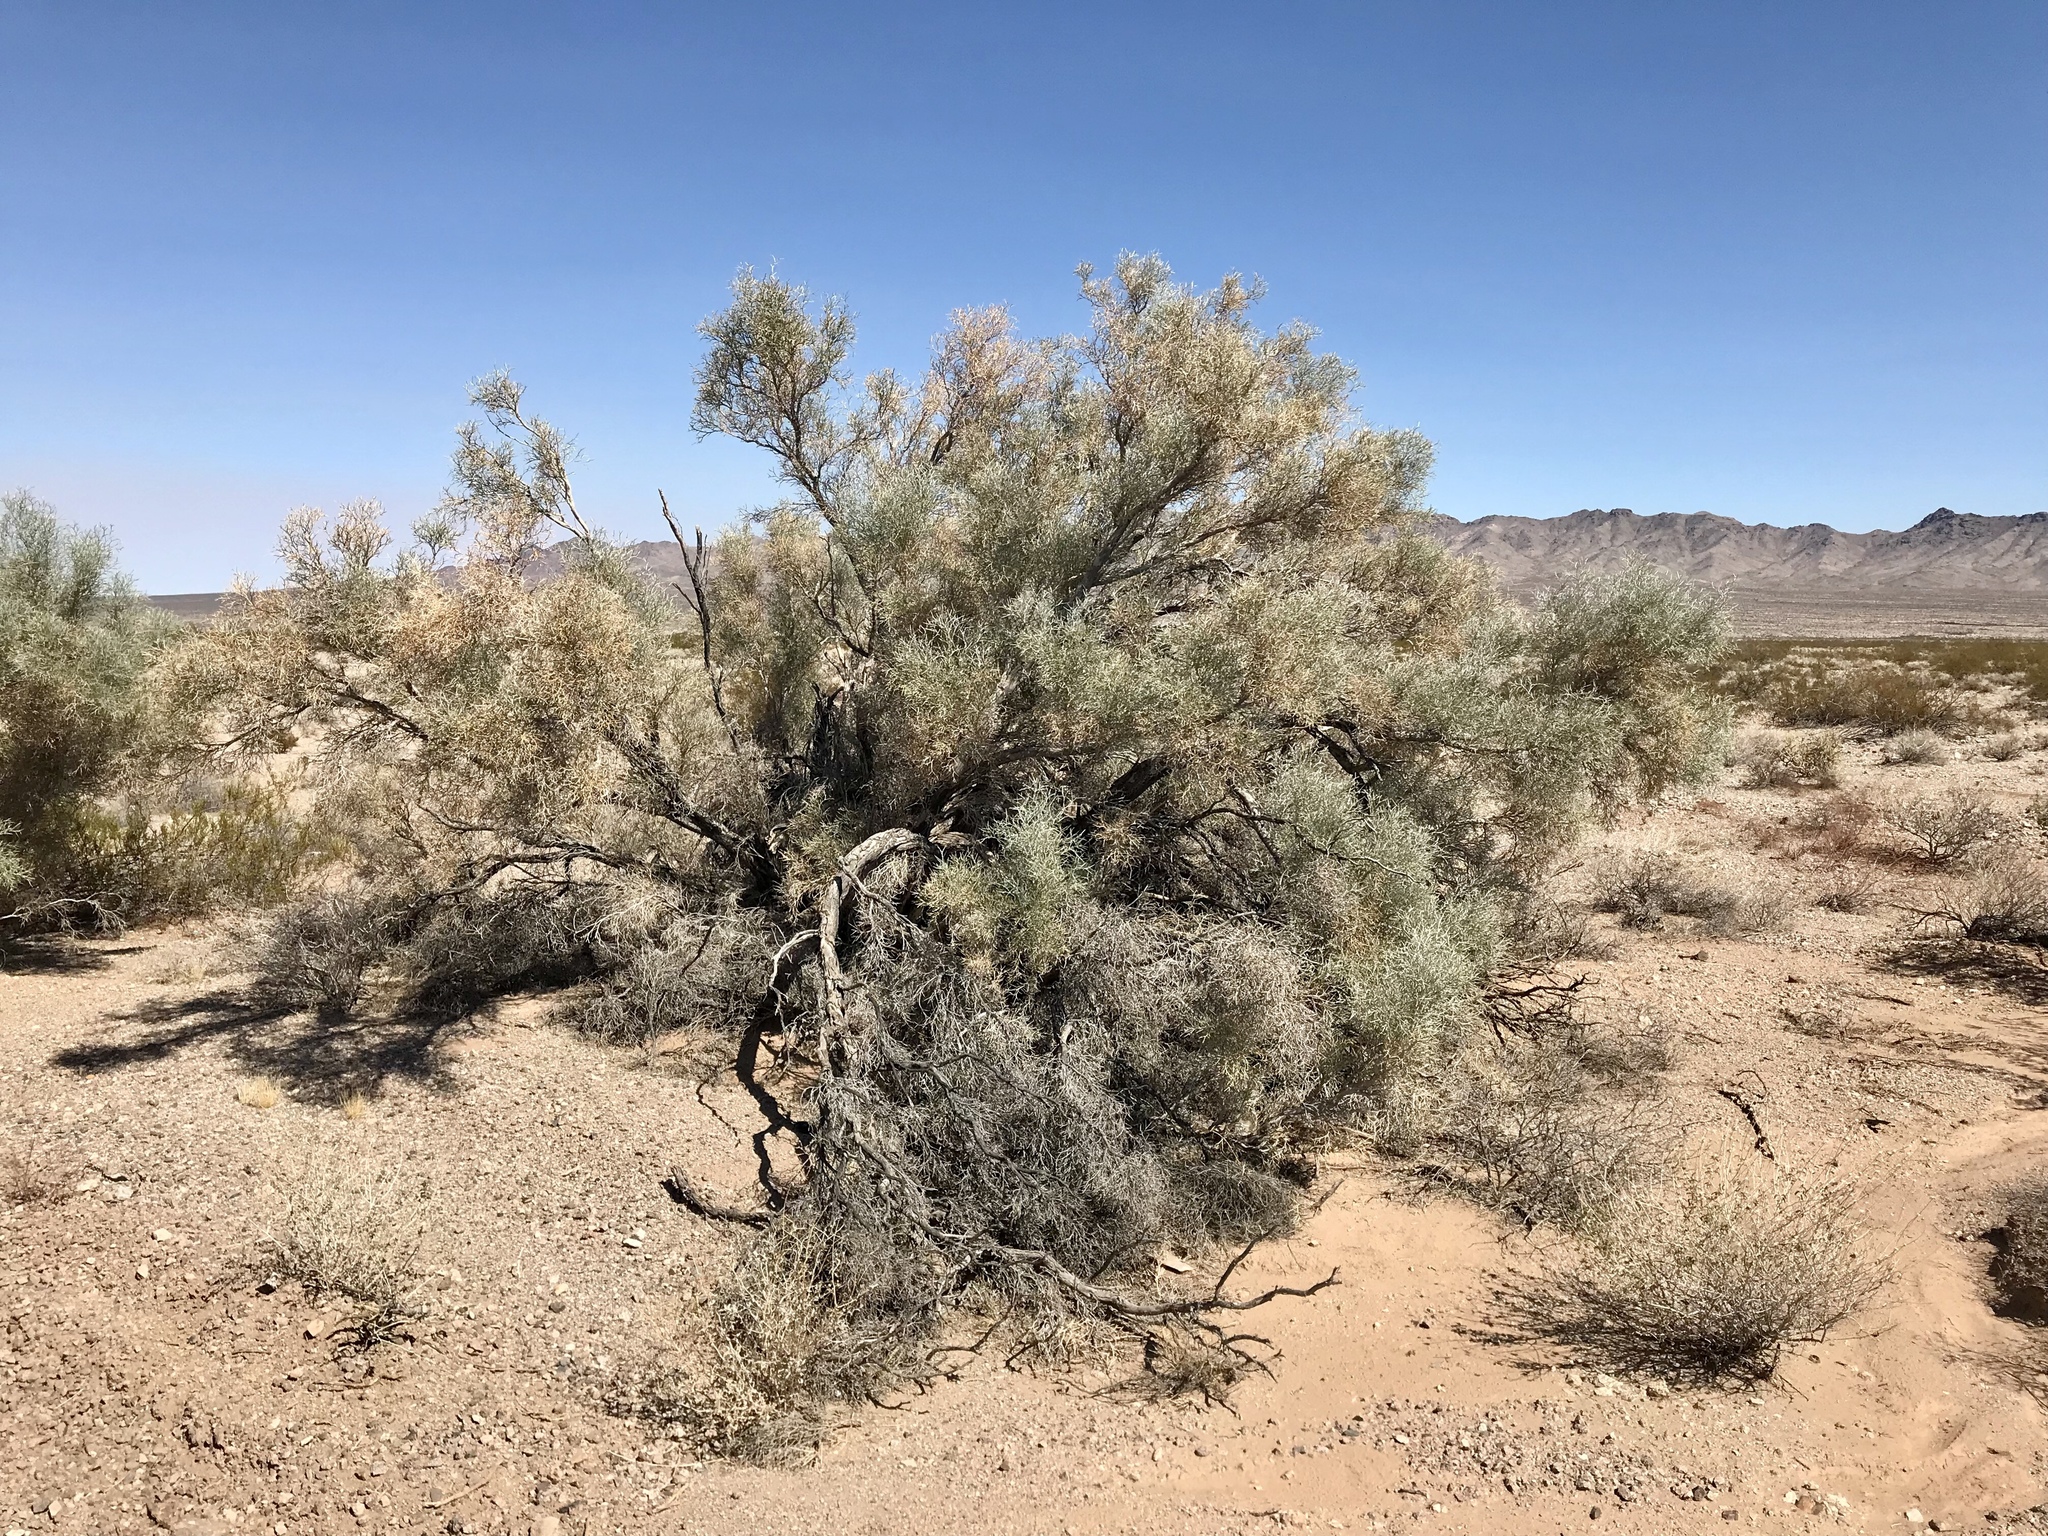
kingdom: Plantae
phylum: Tracheophyta
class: Magnoliopsida
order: Fabales
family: Fabaceae
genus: Psorothamnus
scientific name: Psorothamnus spinosus
